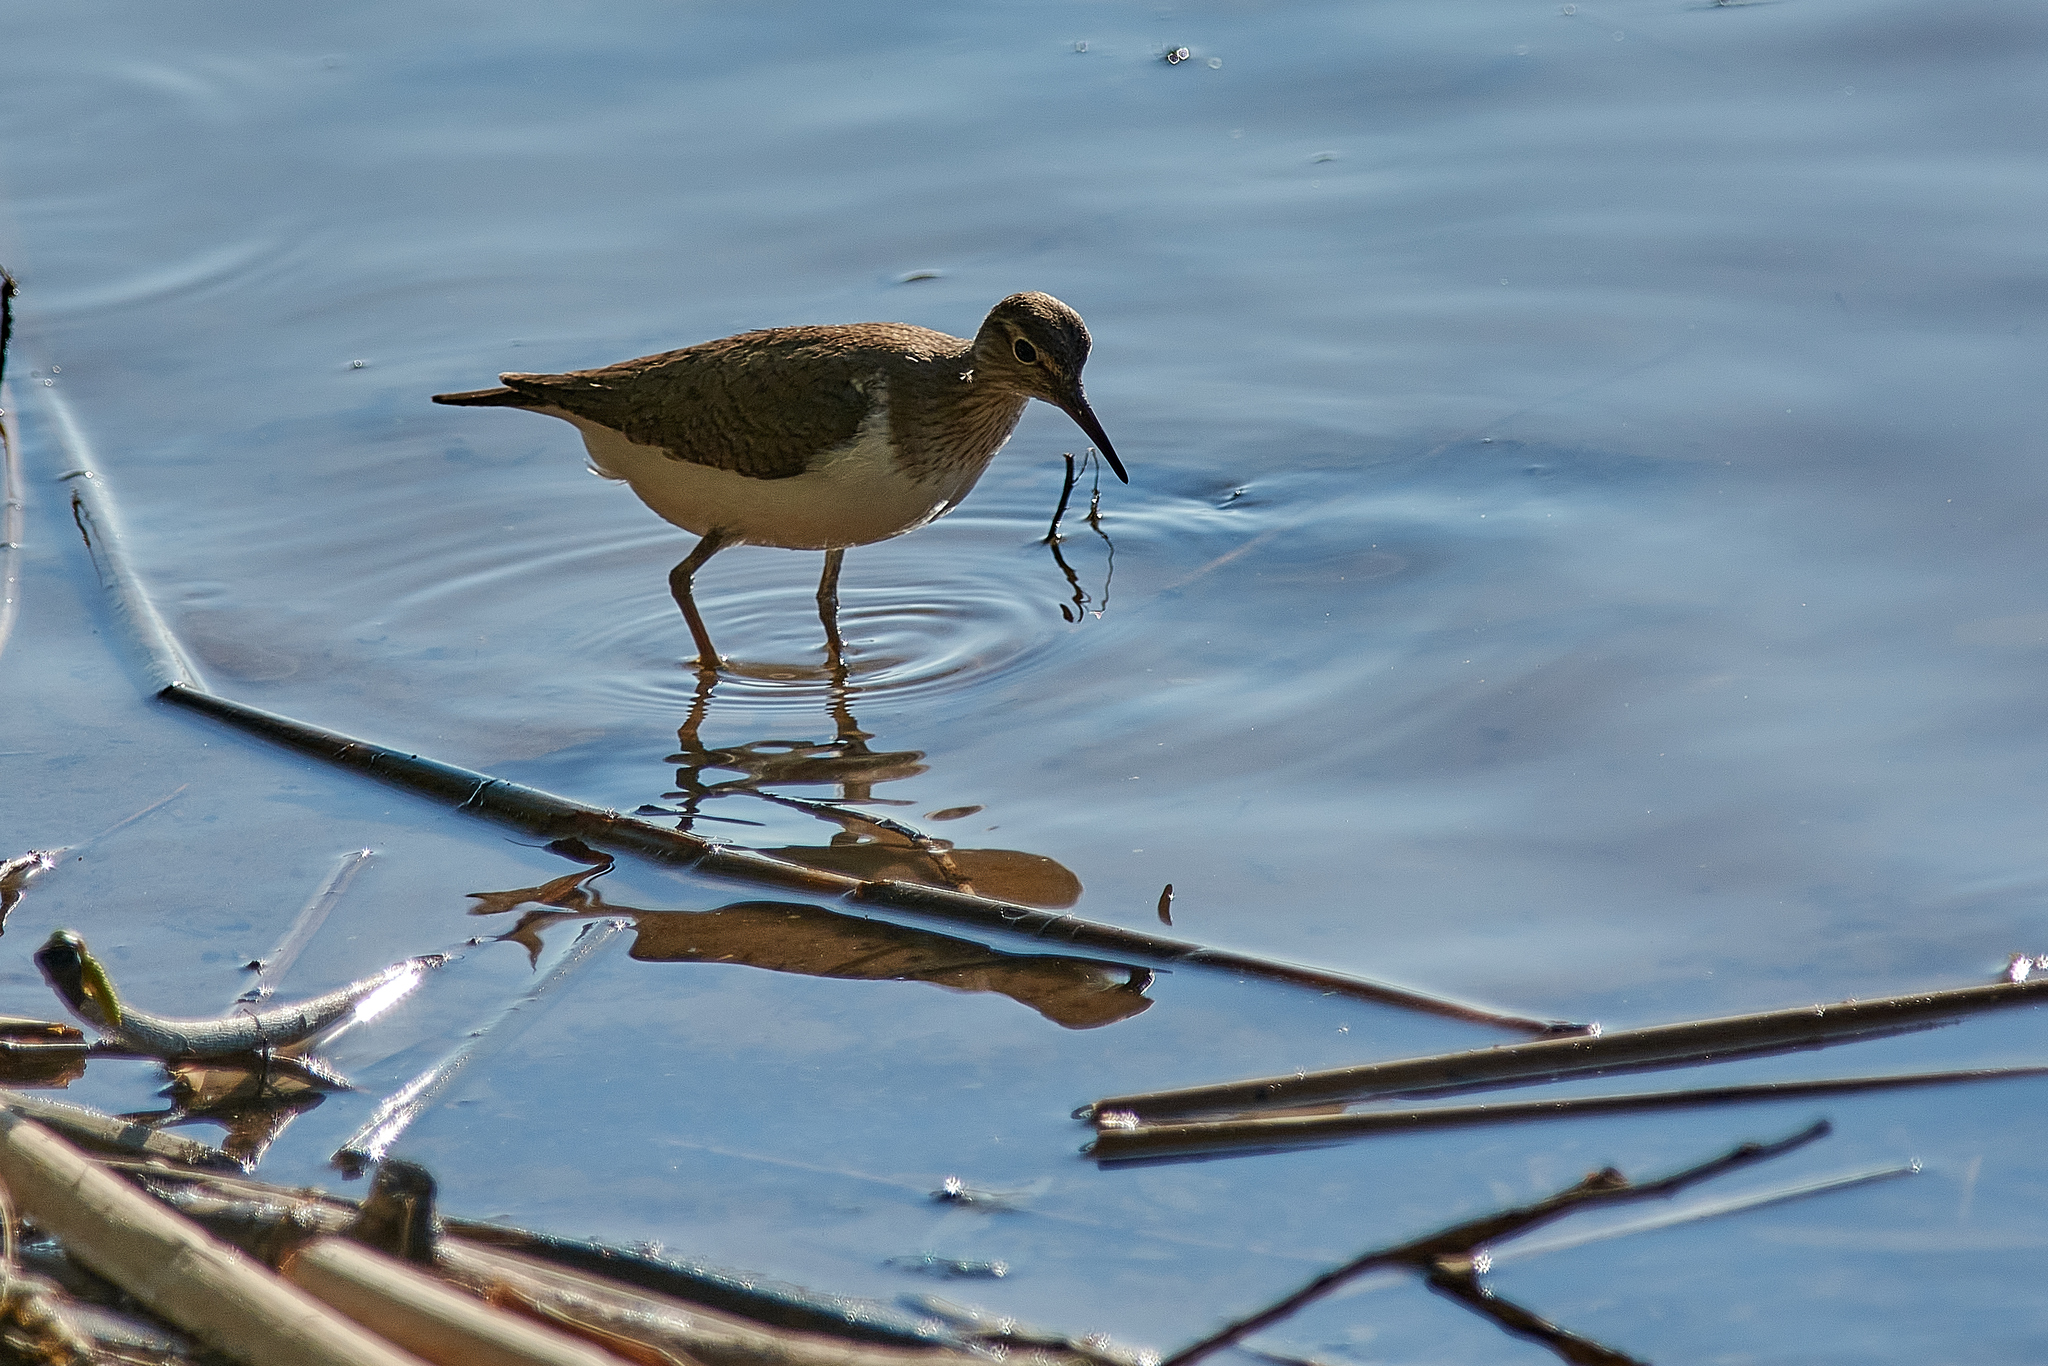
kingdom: Animalia
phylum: Chordata
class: Aves
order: Charadriiformes
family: Scolopacidae
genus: Actitis
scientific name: Actitis hypoleucos
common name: Common sandpiper
